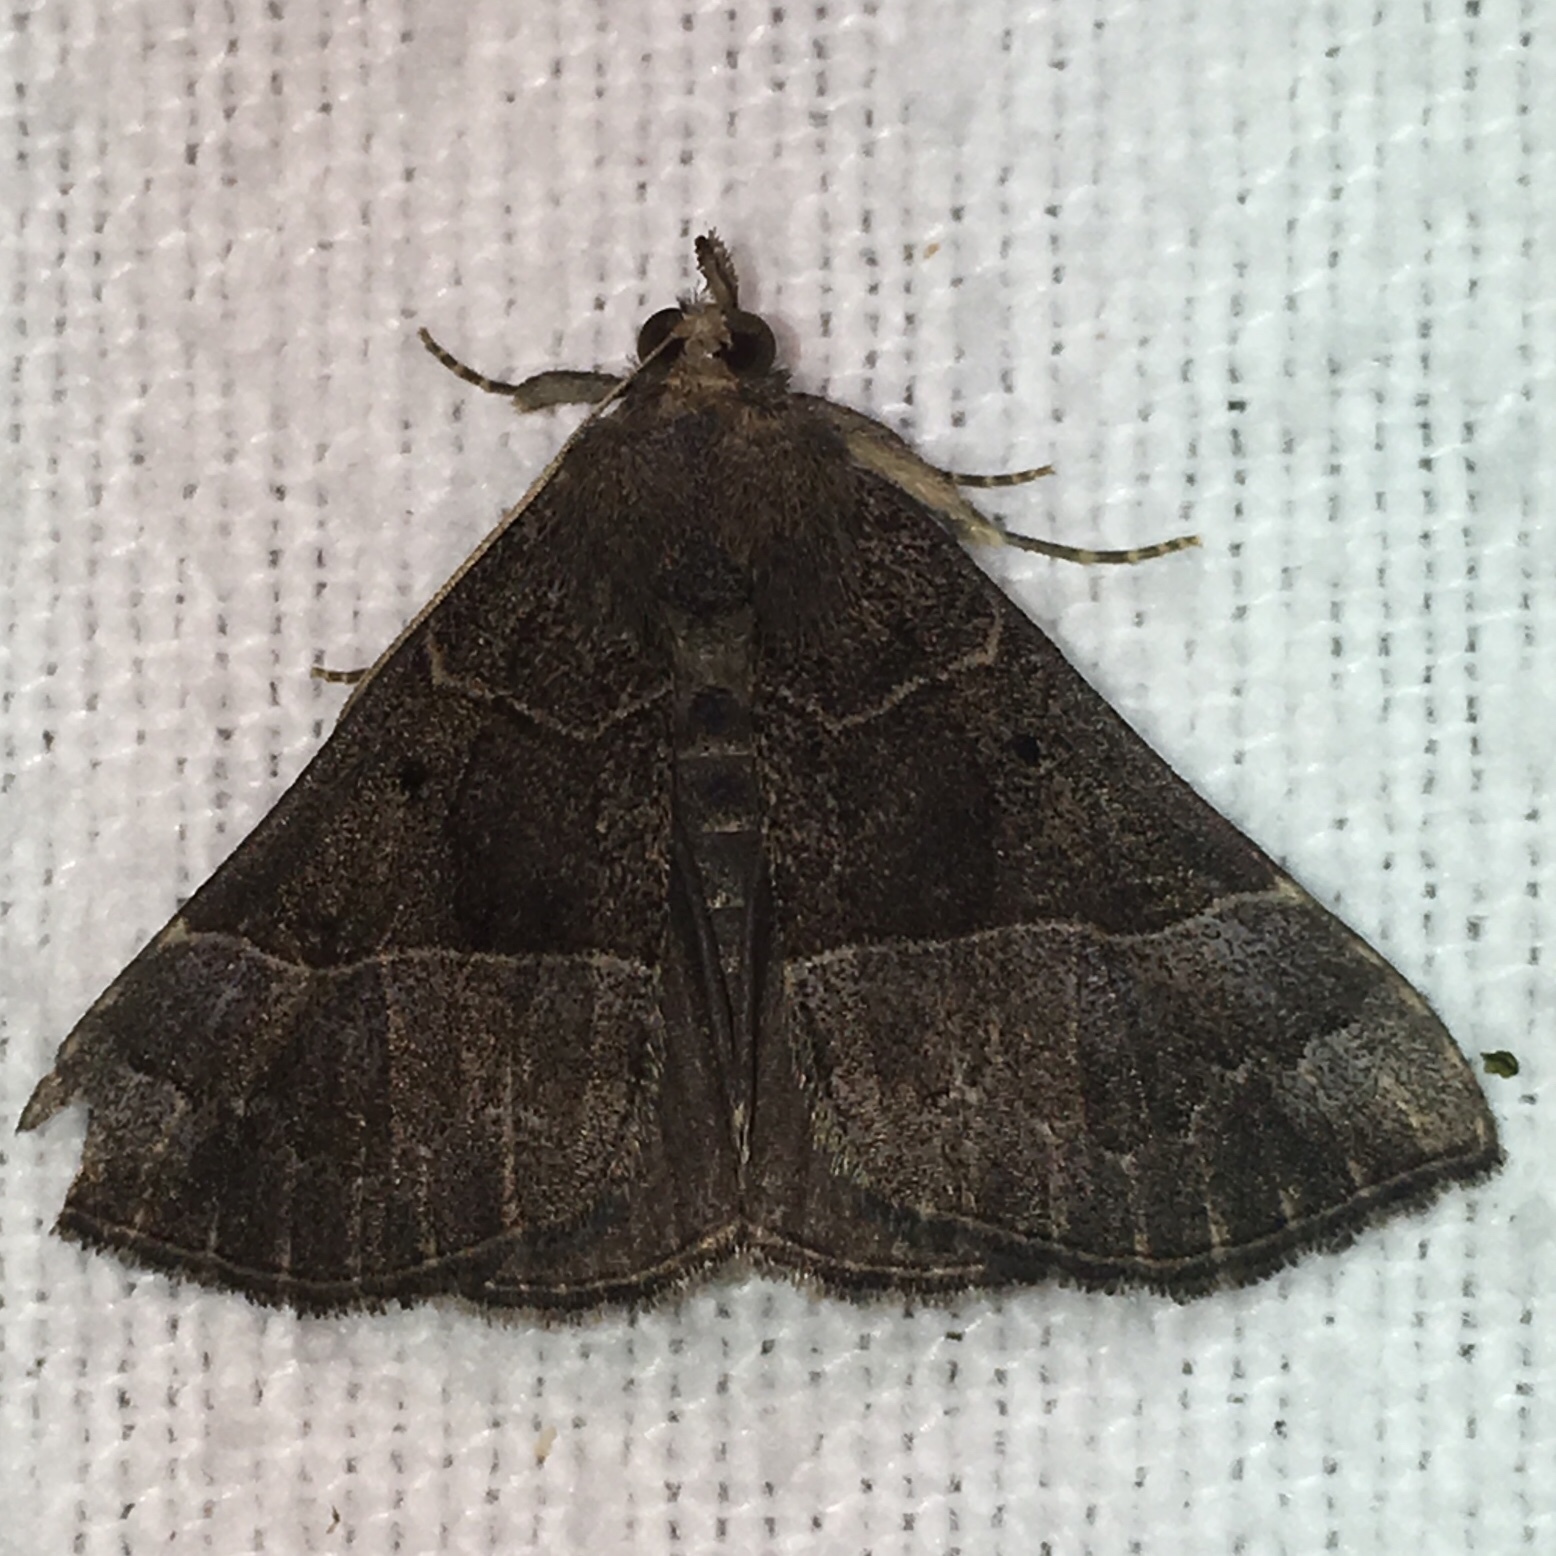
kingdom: Animalia
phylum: Arthropoda
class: Insecta
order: Lepidoptera
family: Erebidae
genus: Hypena
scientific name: Hypena deceptalis
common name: Deceptive snout
